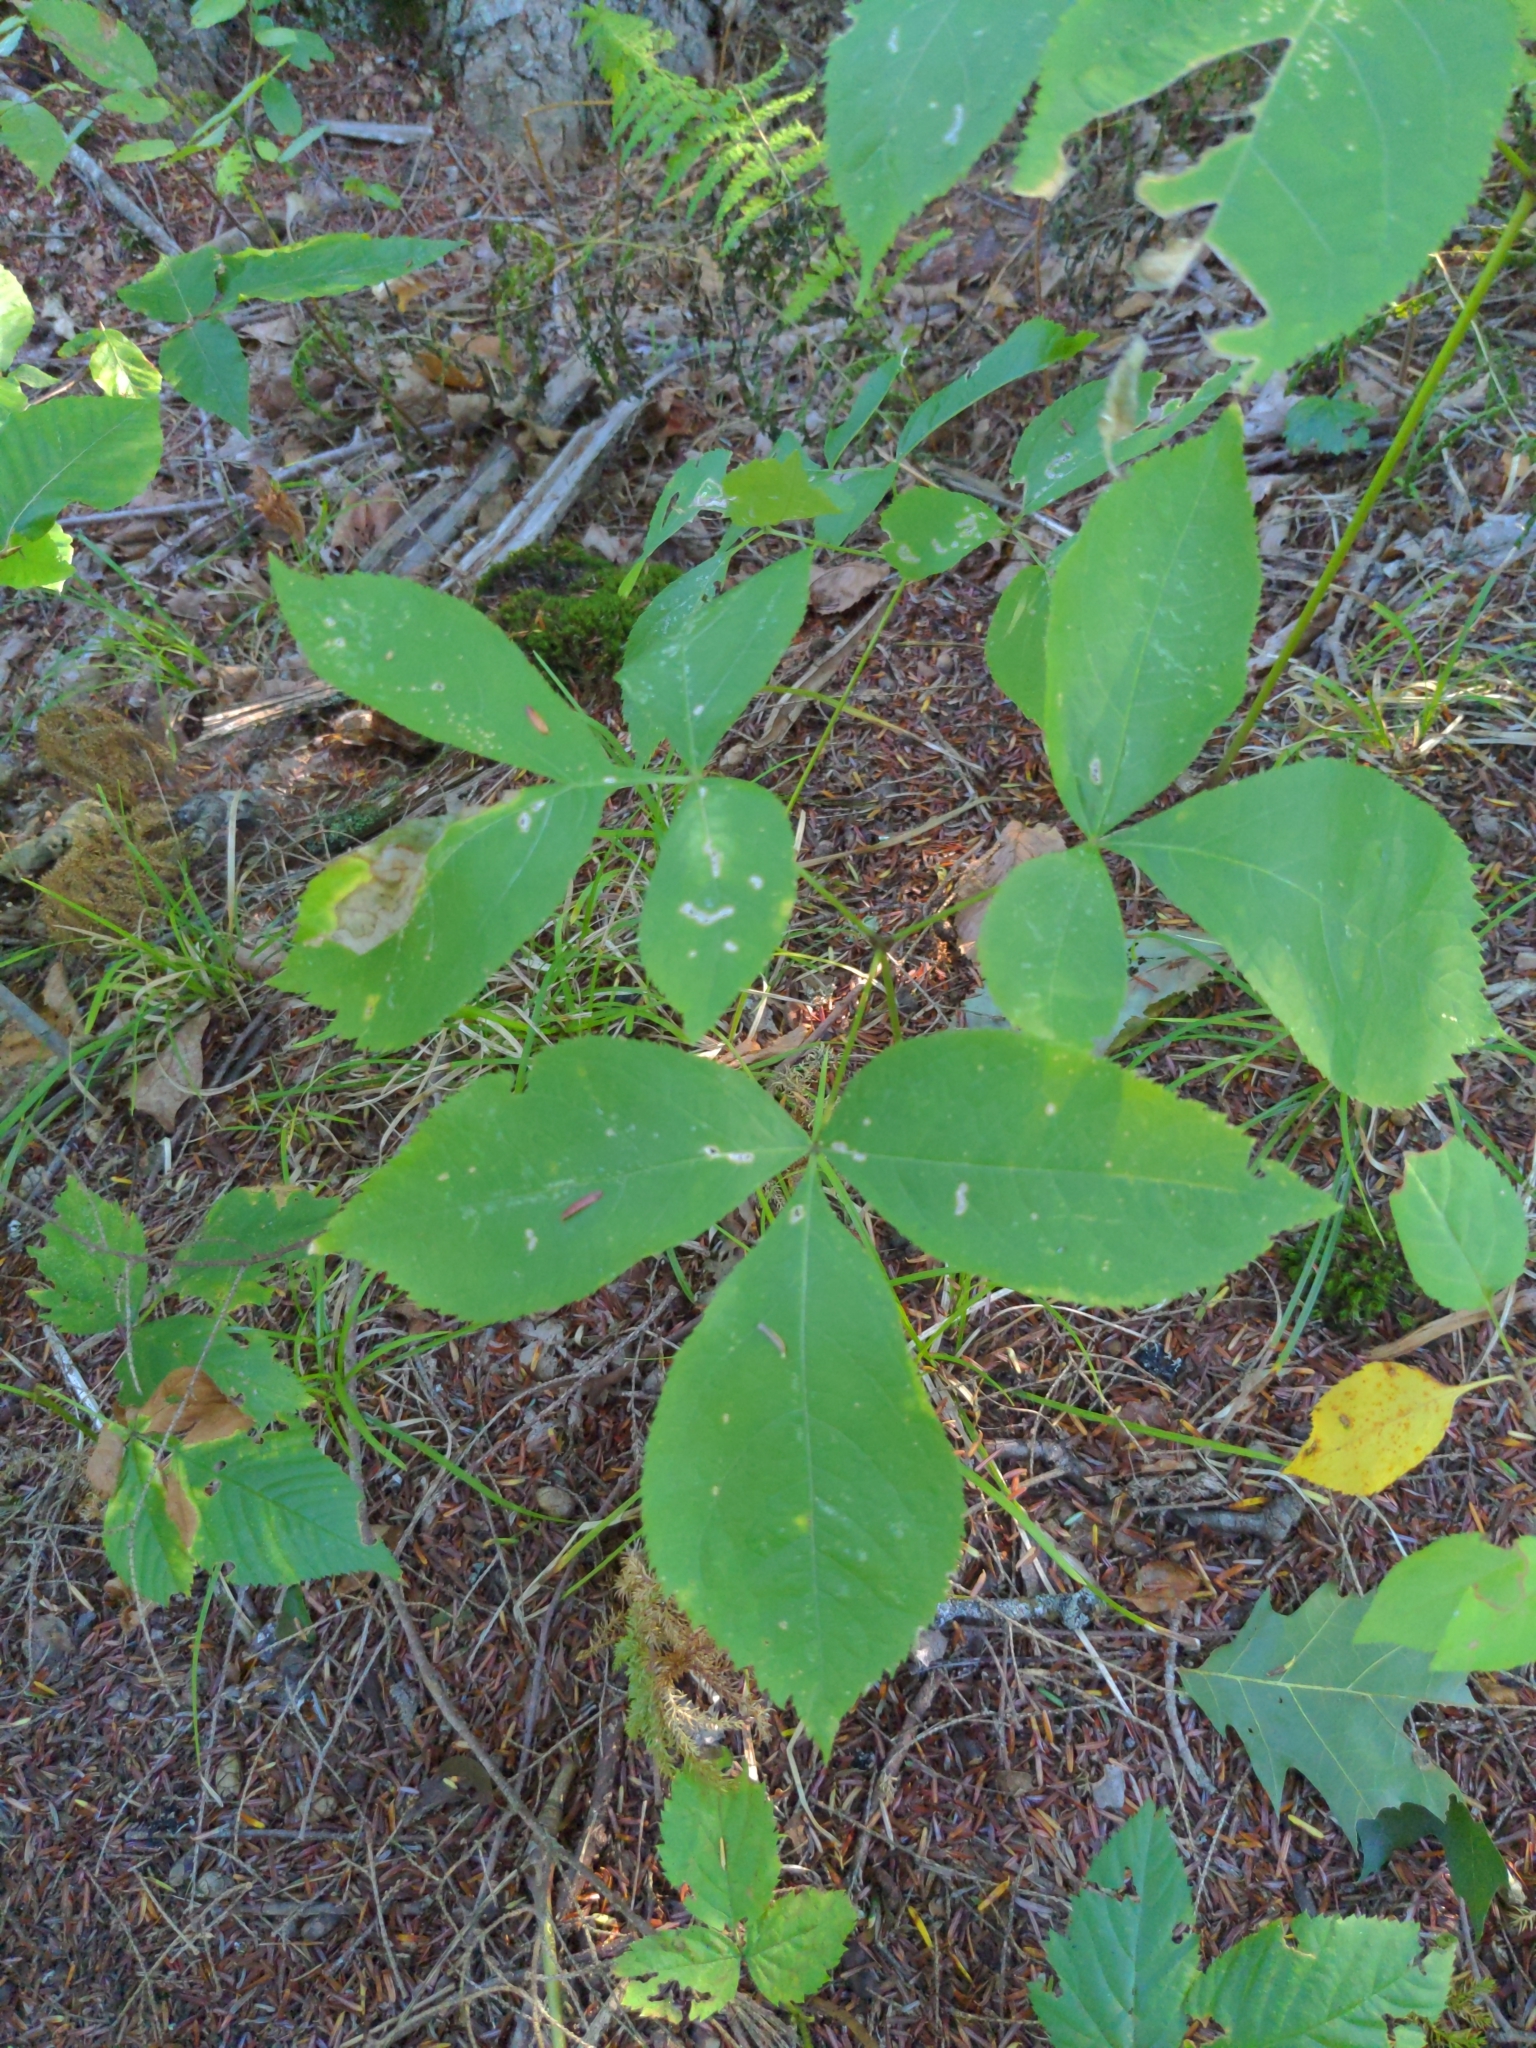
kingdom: Plantae
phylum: Tracheophyta
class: Magnoliopsida
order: Apiales
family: Araliaceae
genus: Aralia
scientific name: Aralia nudicaulis
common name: Wild sarsaparilla
